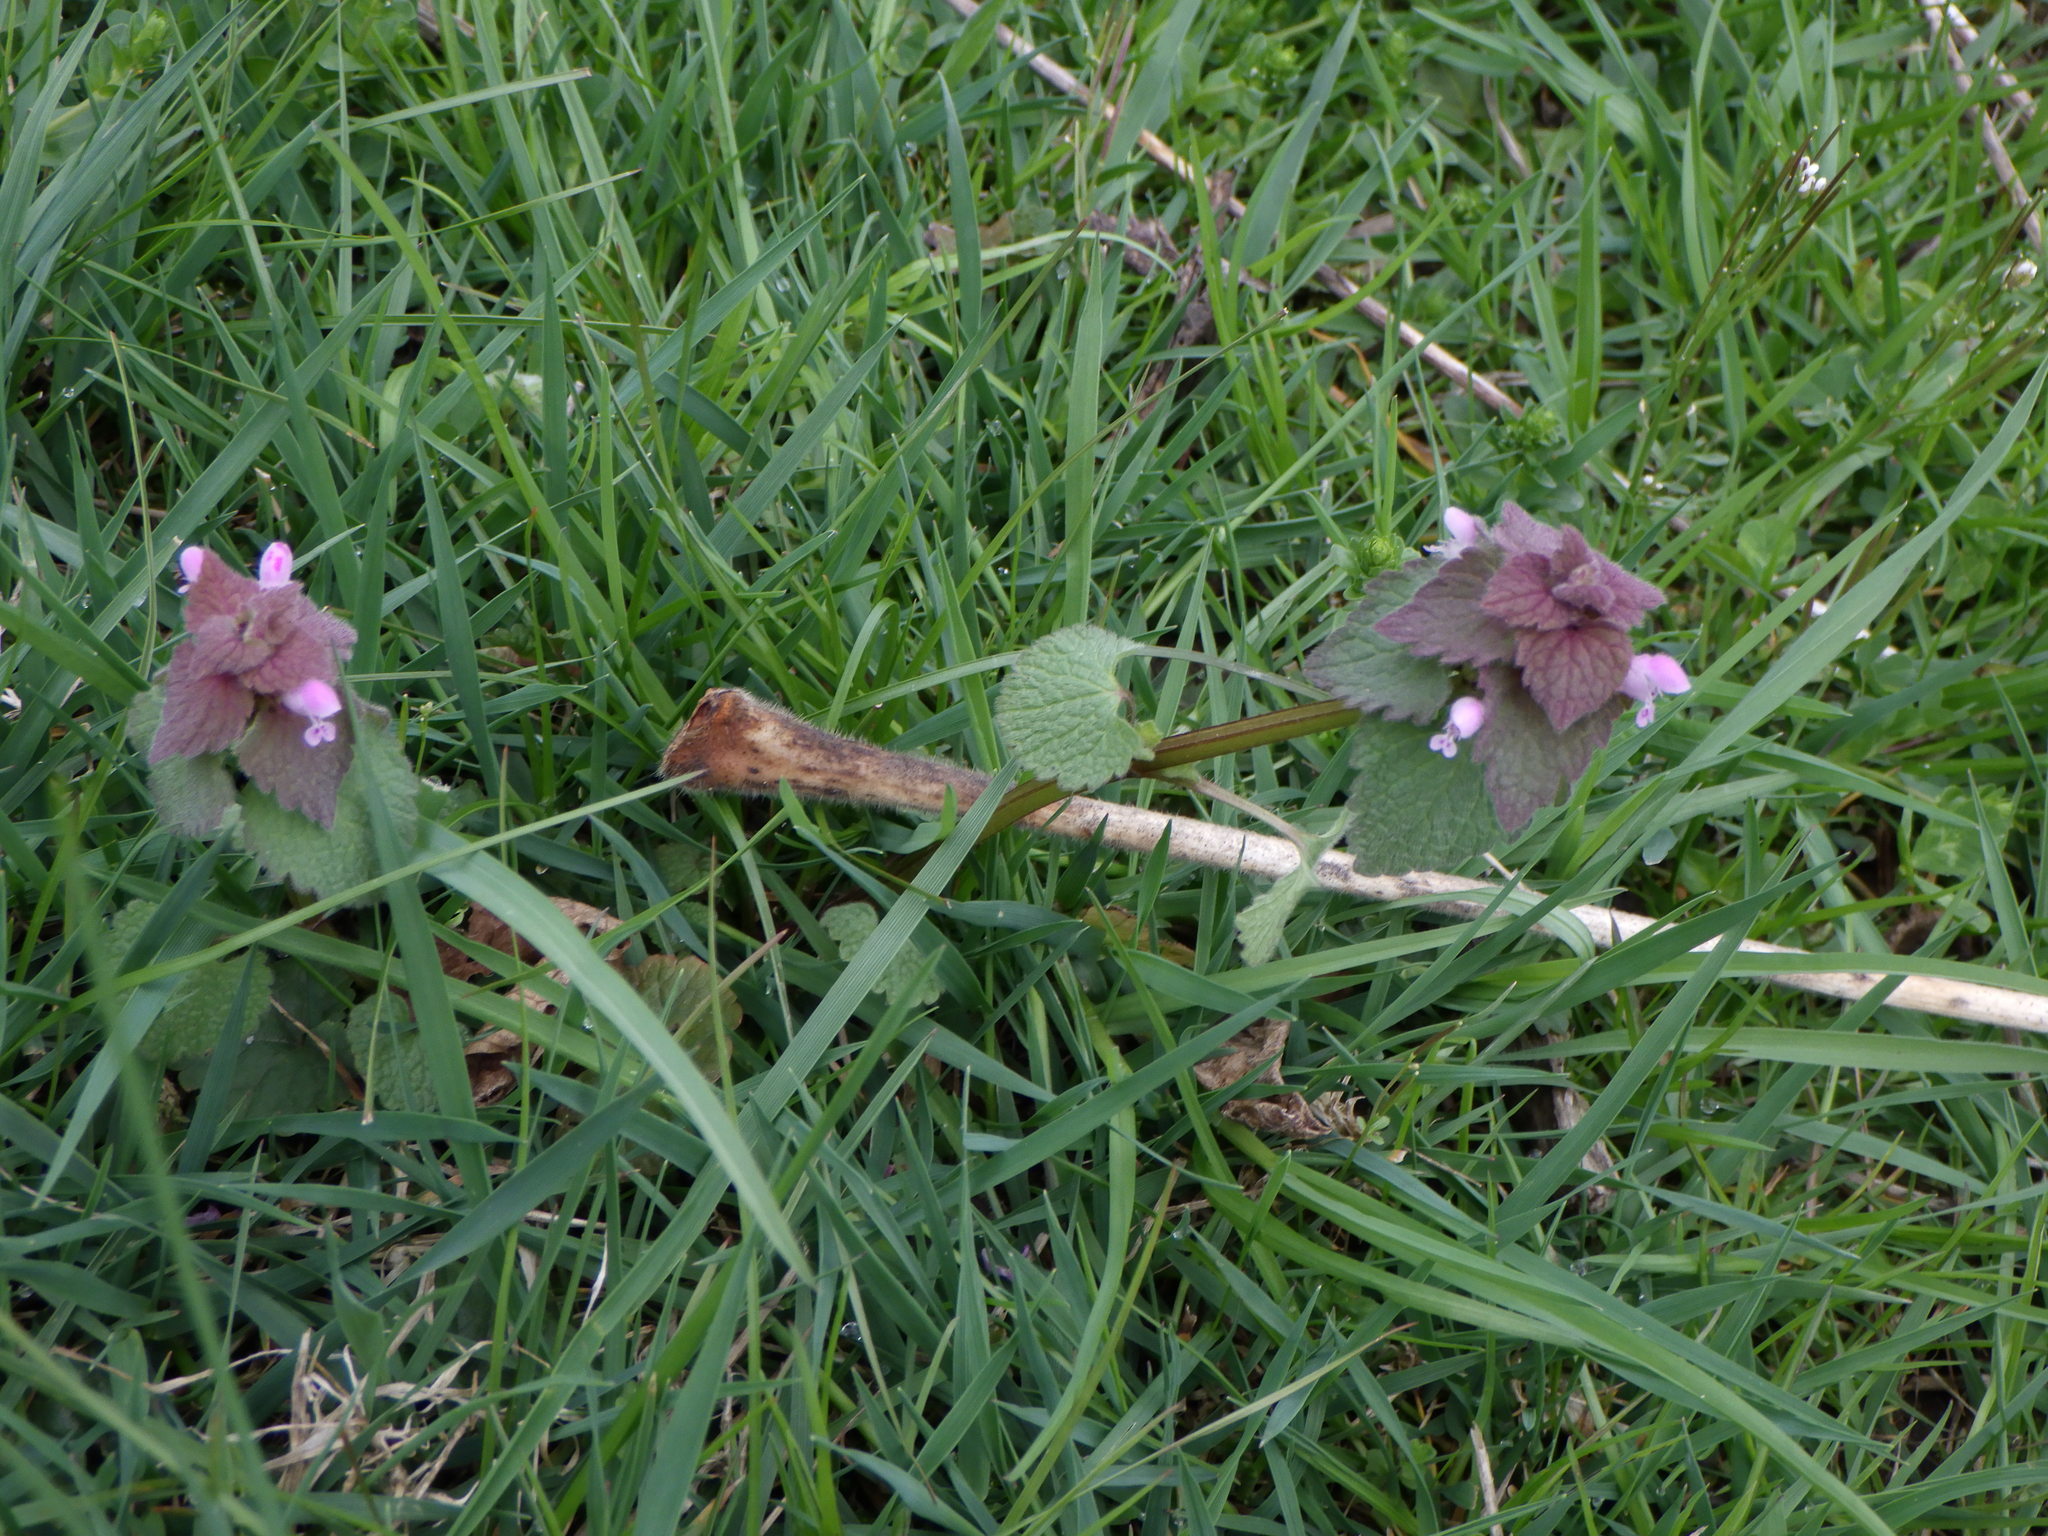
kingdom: Plantae
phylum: Tracheophyta
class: Magnoliopsida
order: Lamiales
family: Lamiaceae
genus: Lamium
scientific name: Lamium purpureum
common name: Red dead-nettle
